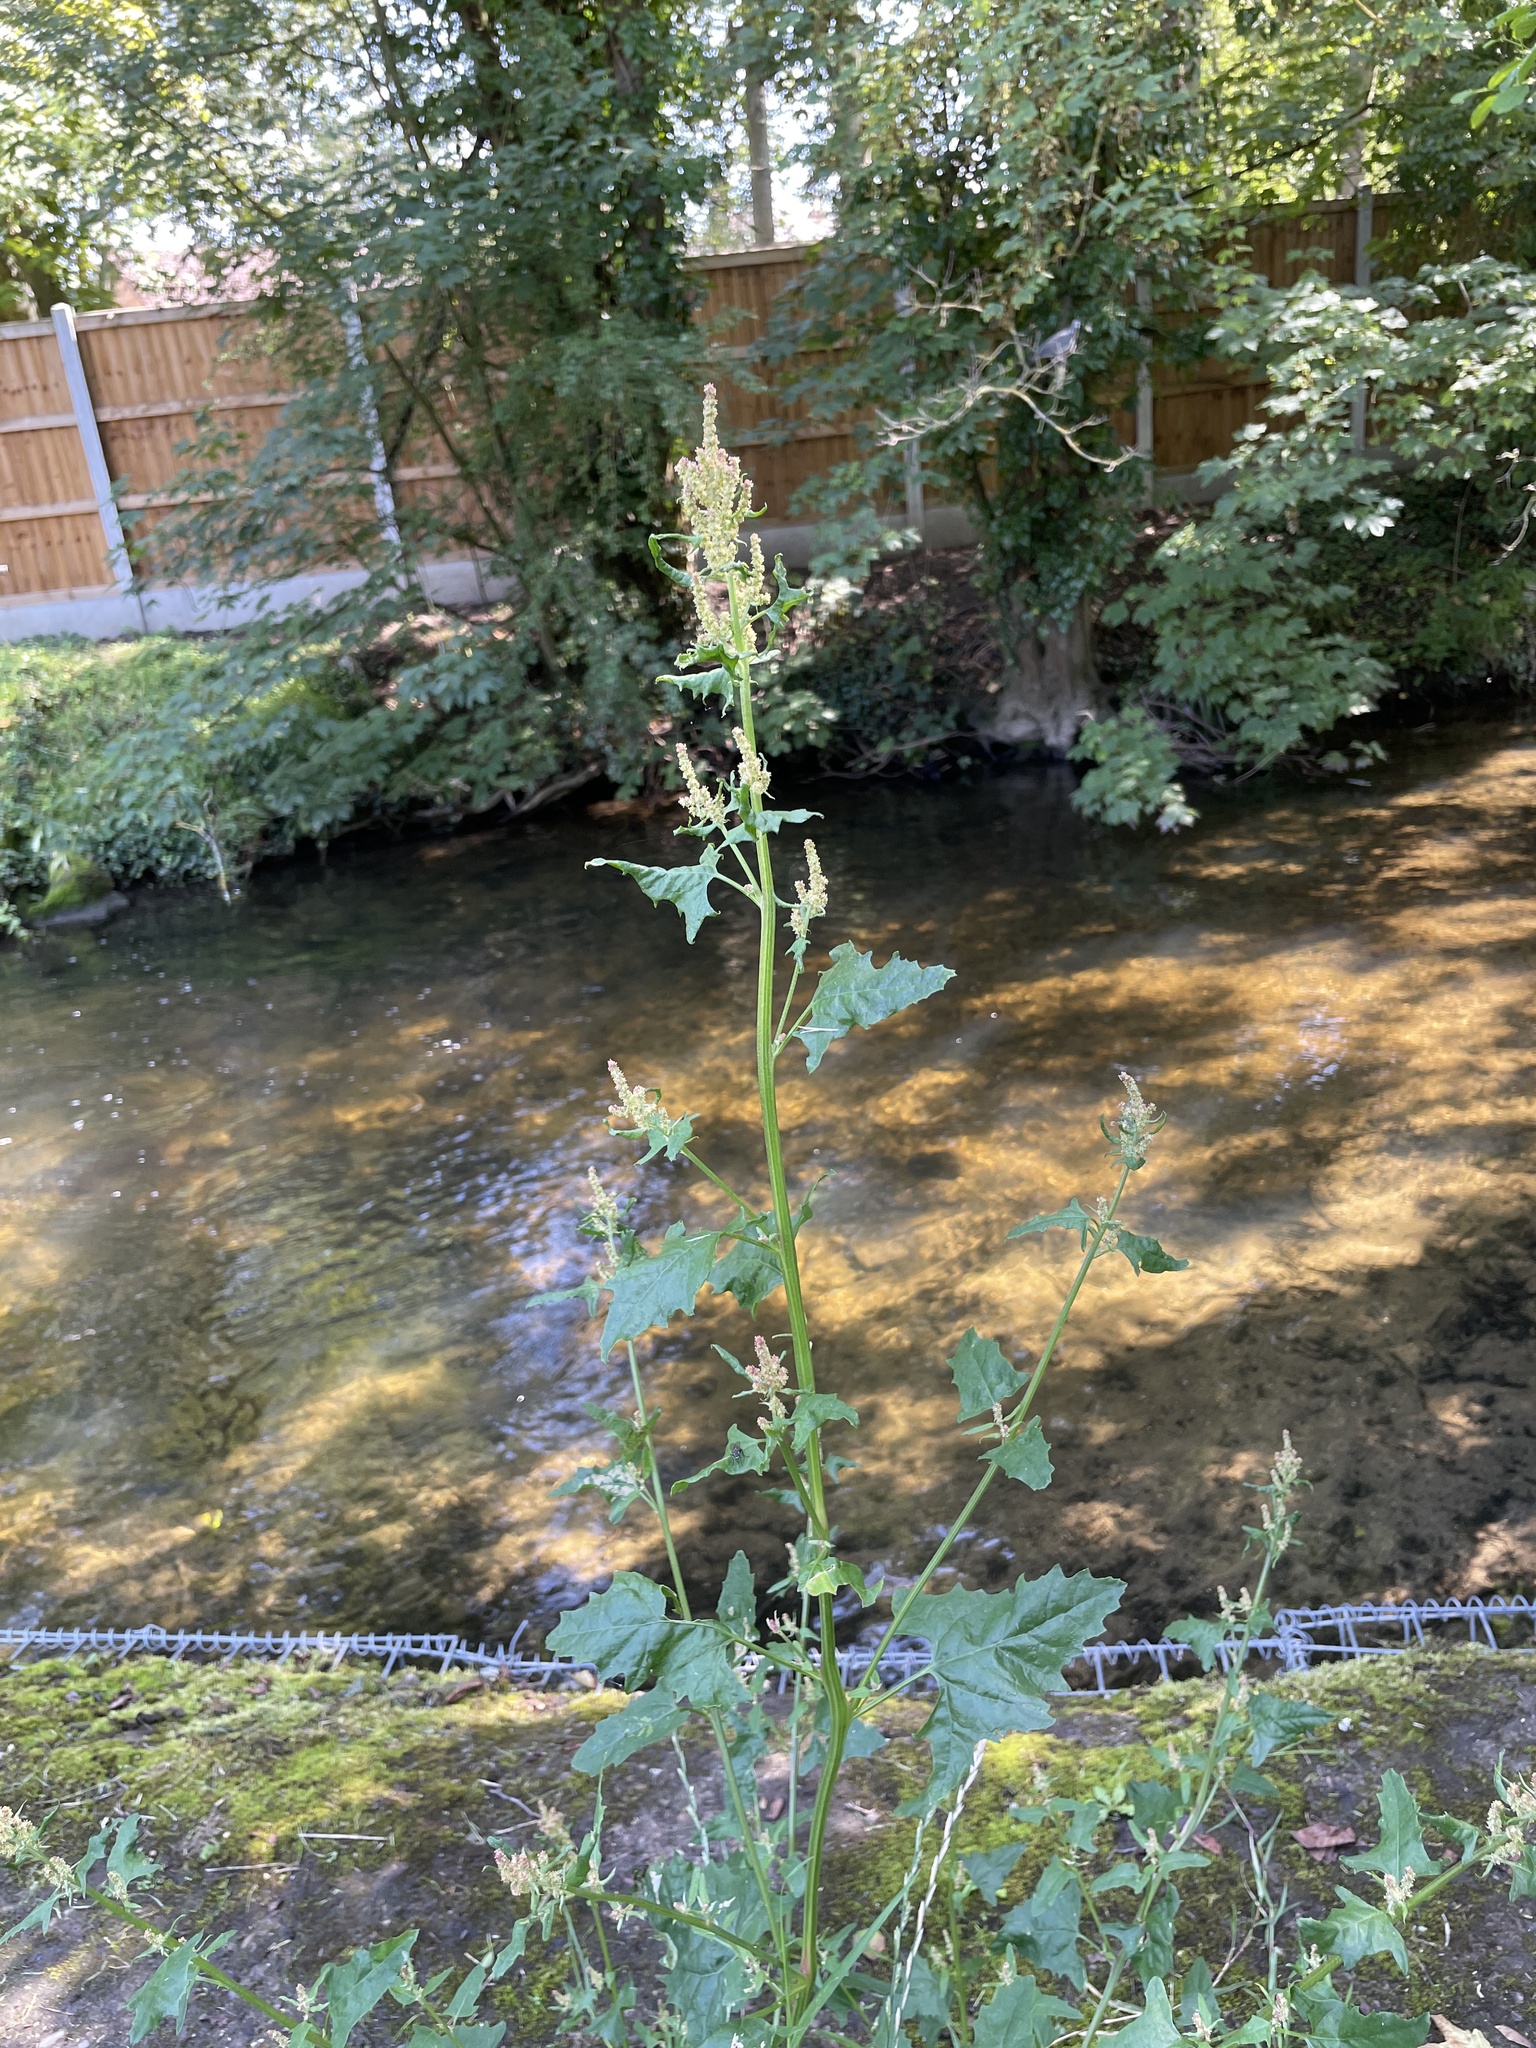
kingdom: Plantae
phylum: Tracheophyta
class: Magnoliopsida
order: Caryophyllales
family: Amaranthaceae
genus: Atriplex
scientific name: Atriplex prostrata
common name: Spear-leaved orache
